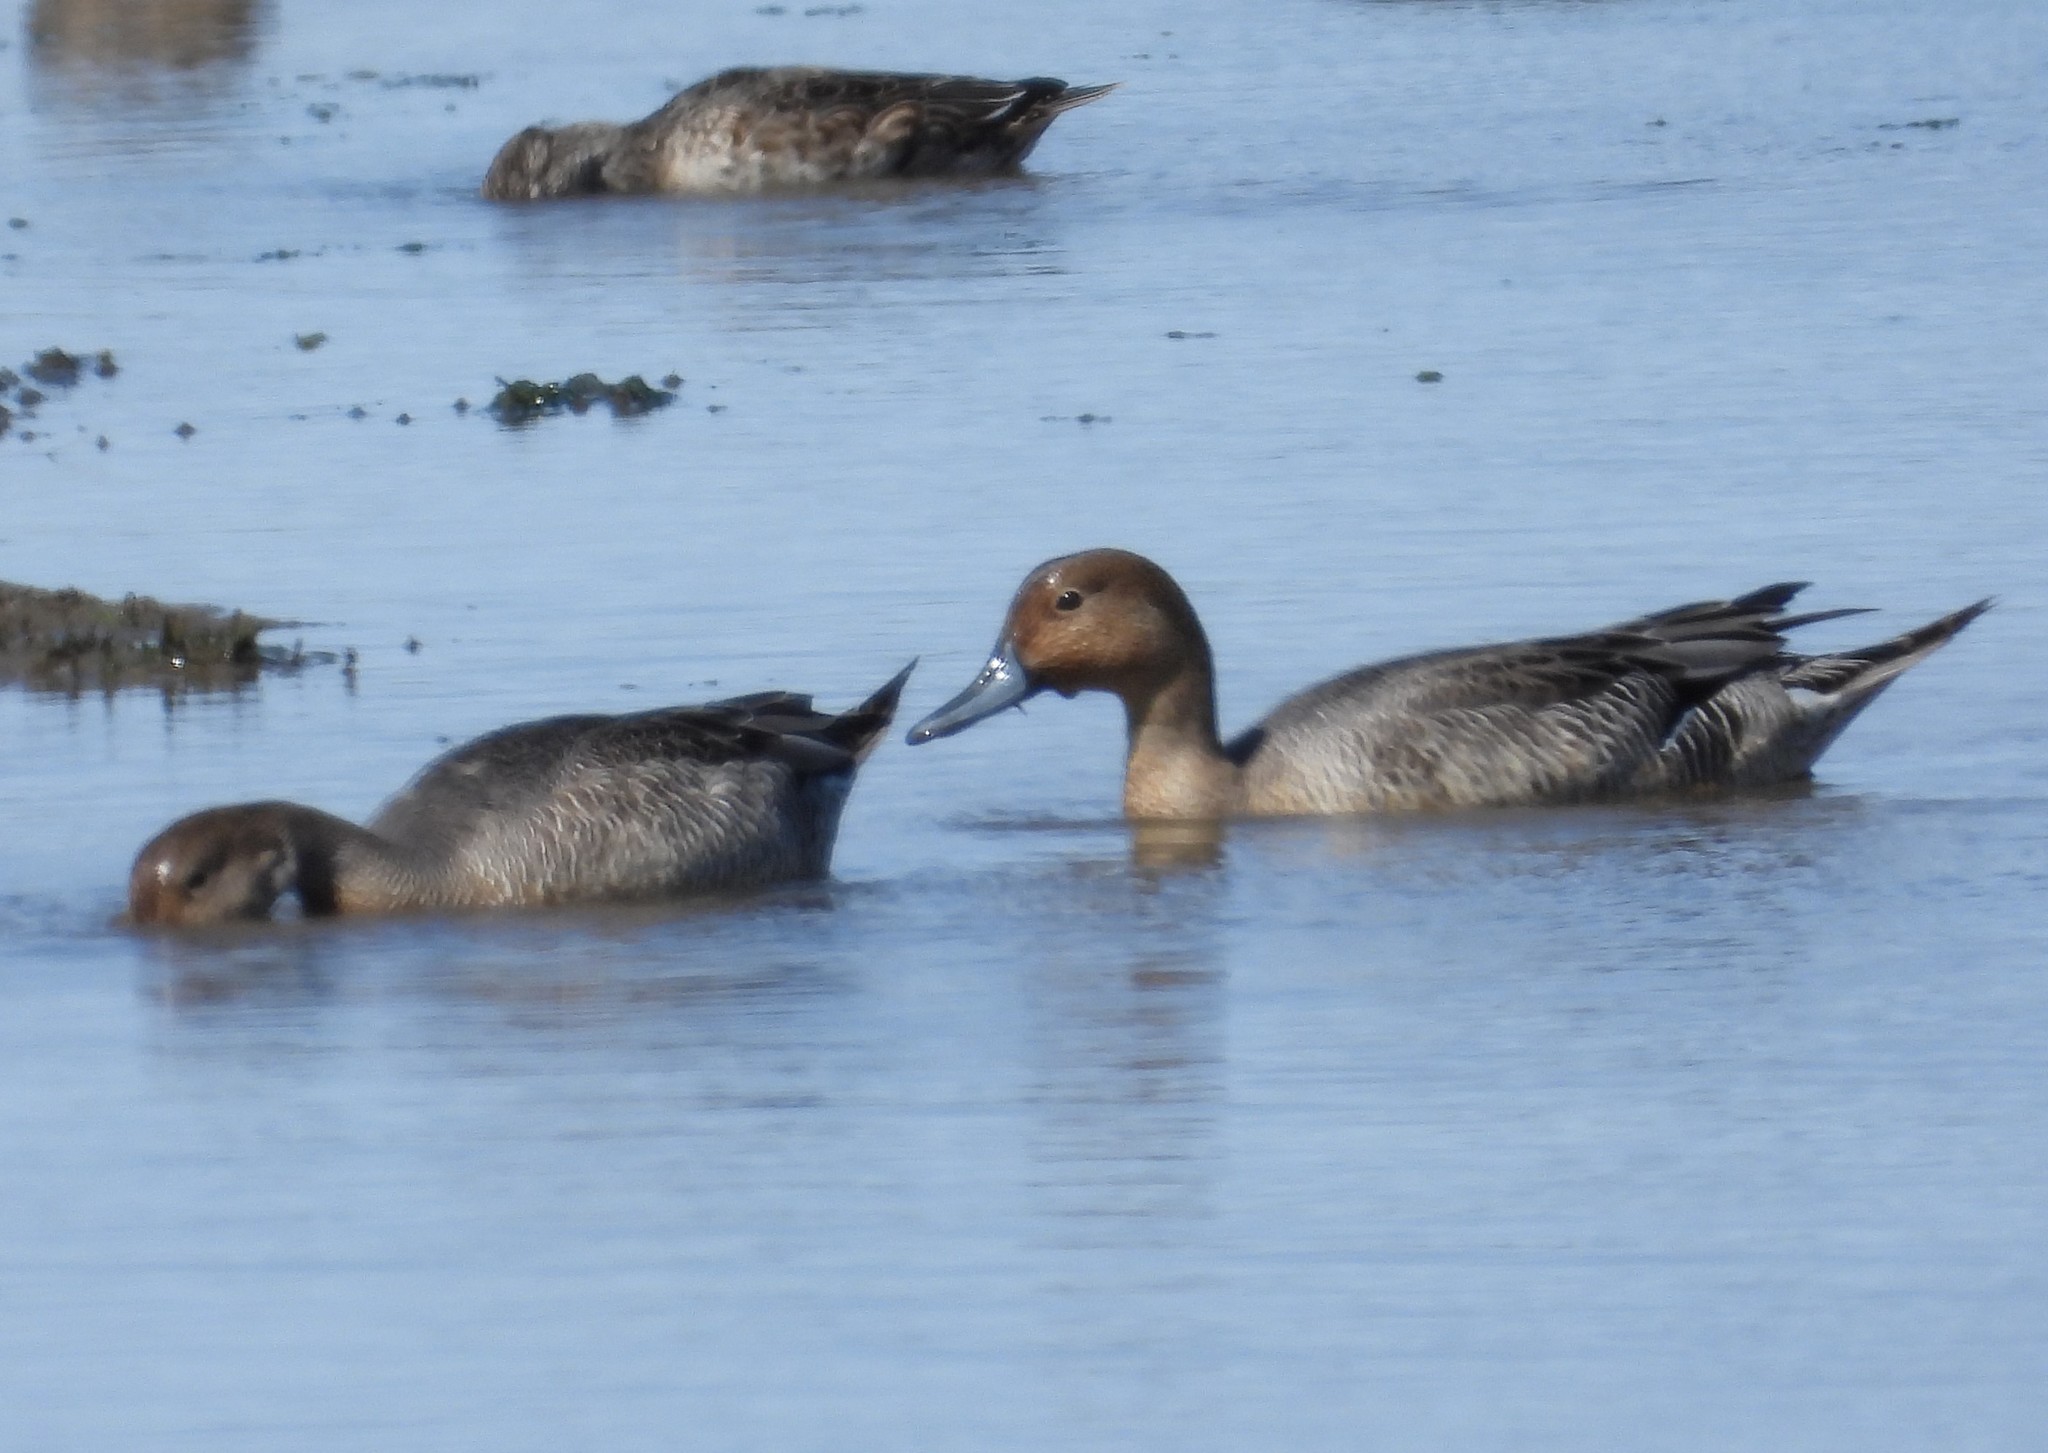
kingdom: Animalia
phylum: Chordata
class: Aves
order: Anseriformes
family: Anatidae
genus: Anas
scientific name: Anas acuta
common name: Northern pintail
